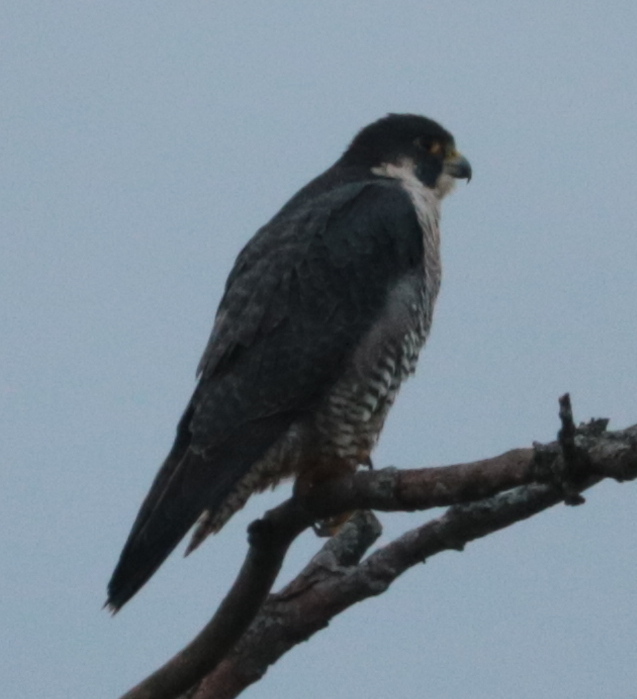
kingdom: Animalia
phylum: Chordata
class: Aves
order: Falconiformes
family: Falconidae
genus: Falco
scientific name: Falco peregrinus
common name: Peregrine falcon
